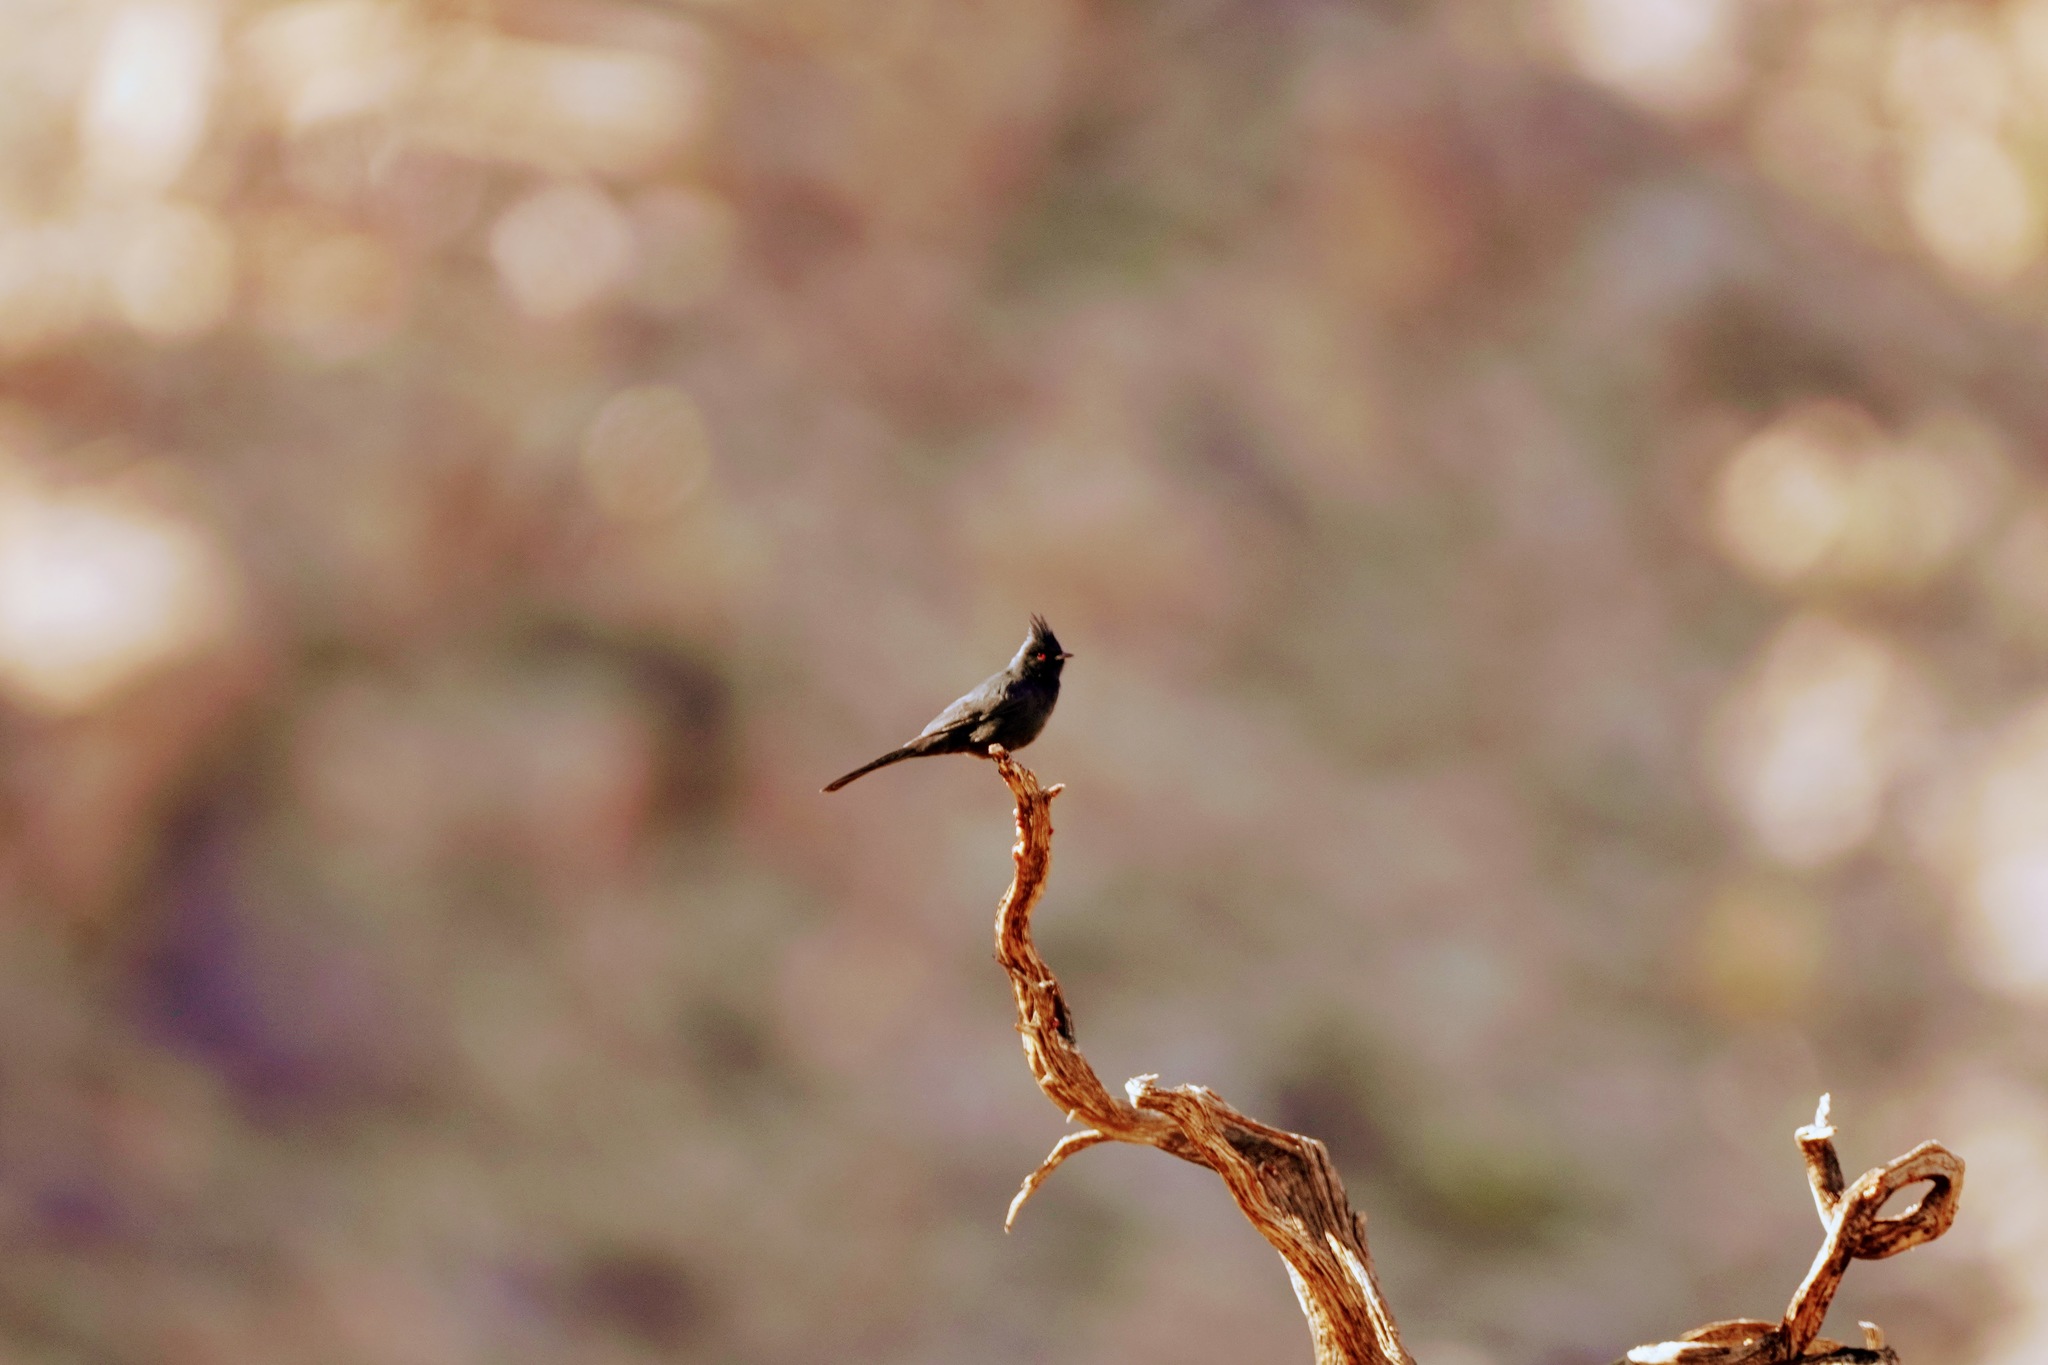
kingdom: Animalia
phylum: Chordata
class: Aves
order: Passeriformes
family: Ptilogonatidae
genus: Phainopepla
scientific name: Phainopepla nitens
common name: Phainopepla
